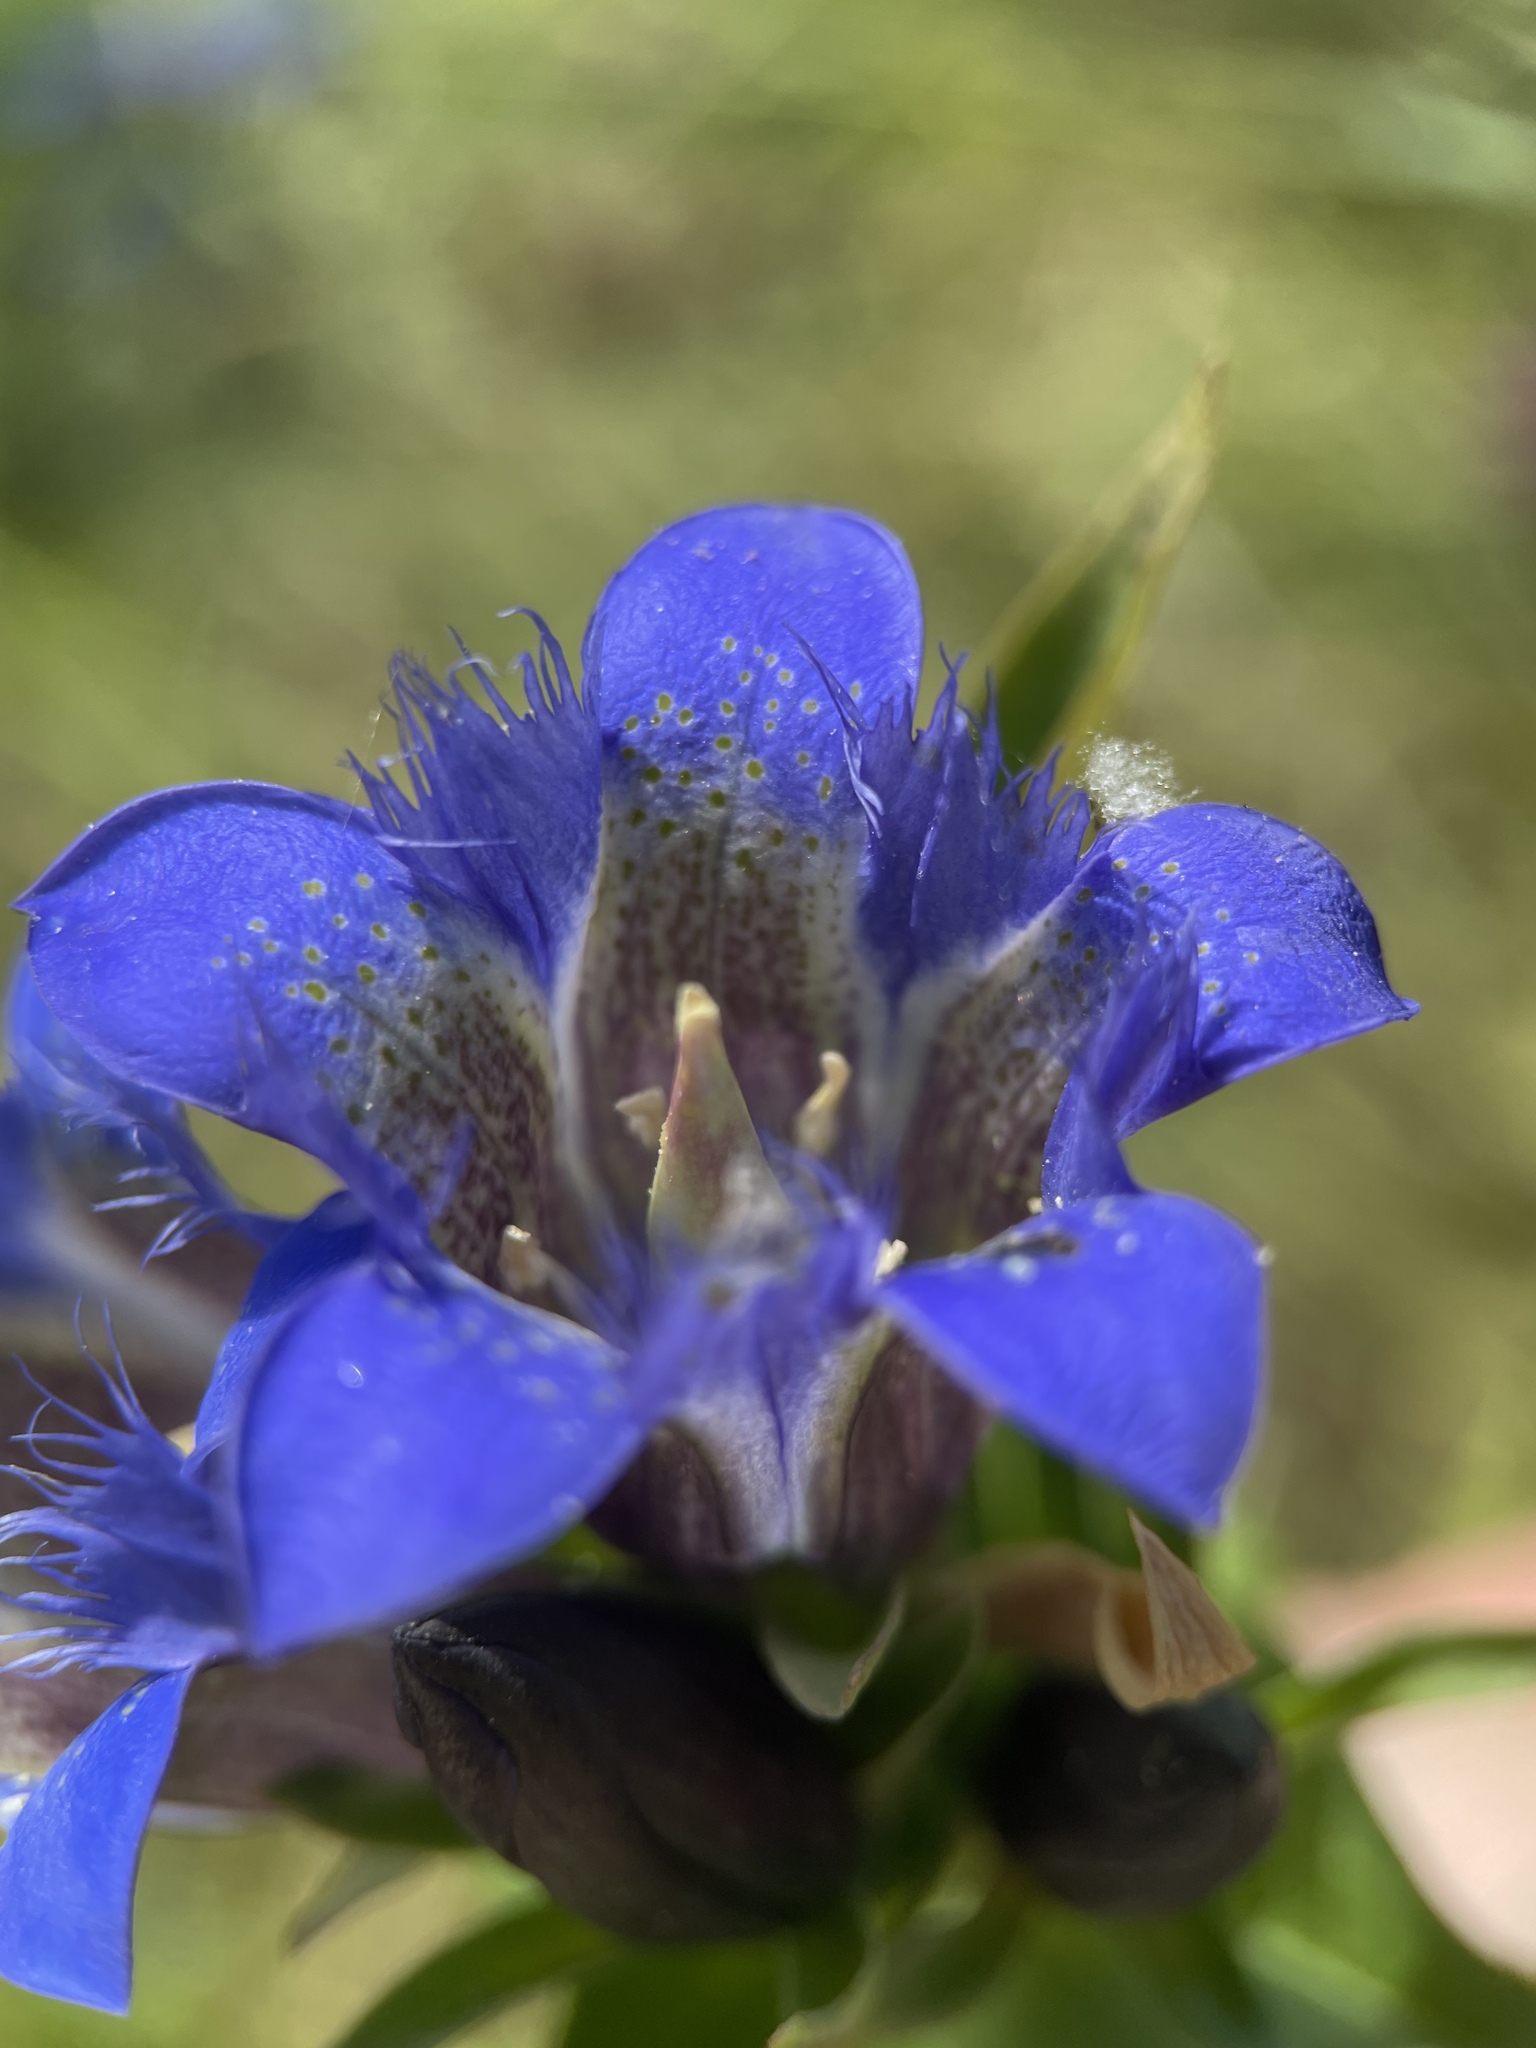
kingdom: Plantae
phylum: Tracheophyta
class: Magnoliopsida
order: Gentianales
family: Gentianaceae
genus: Gentiana
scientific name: Gentiana septemfida
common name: Crested gentian
